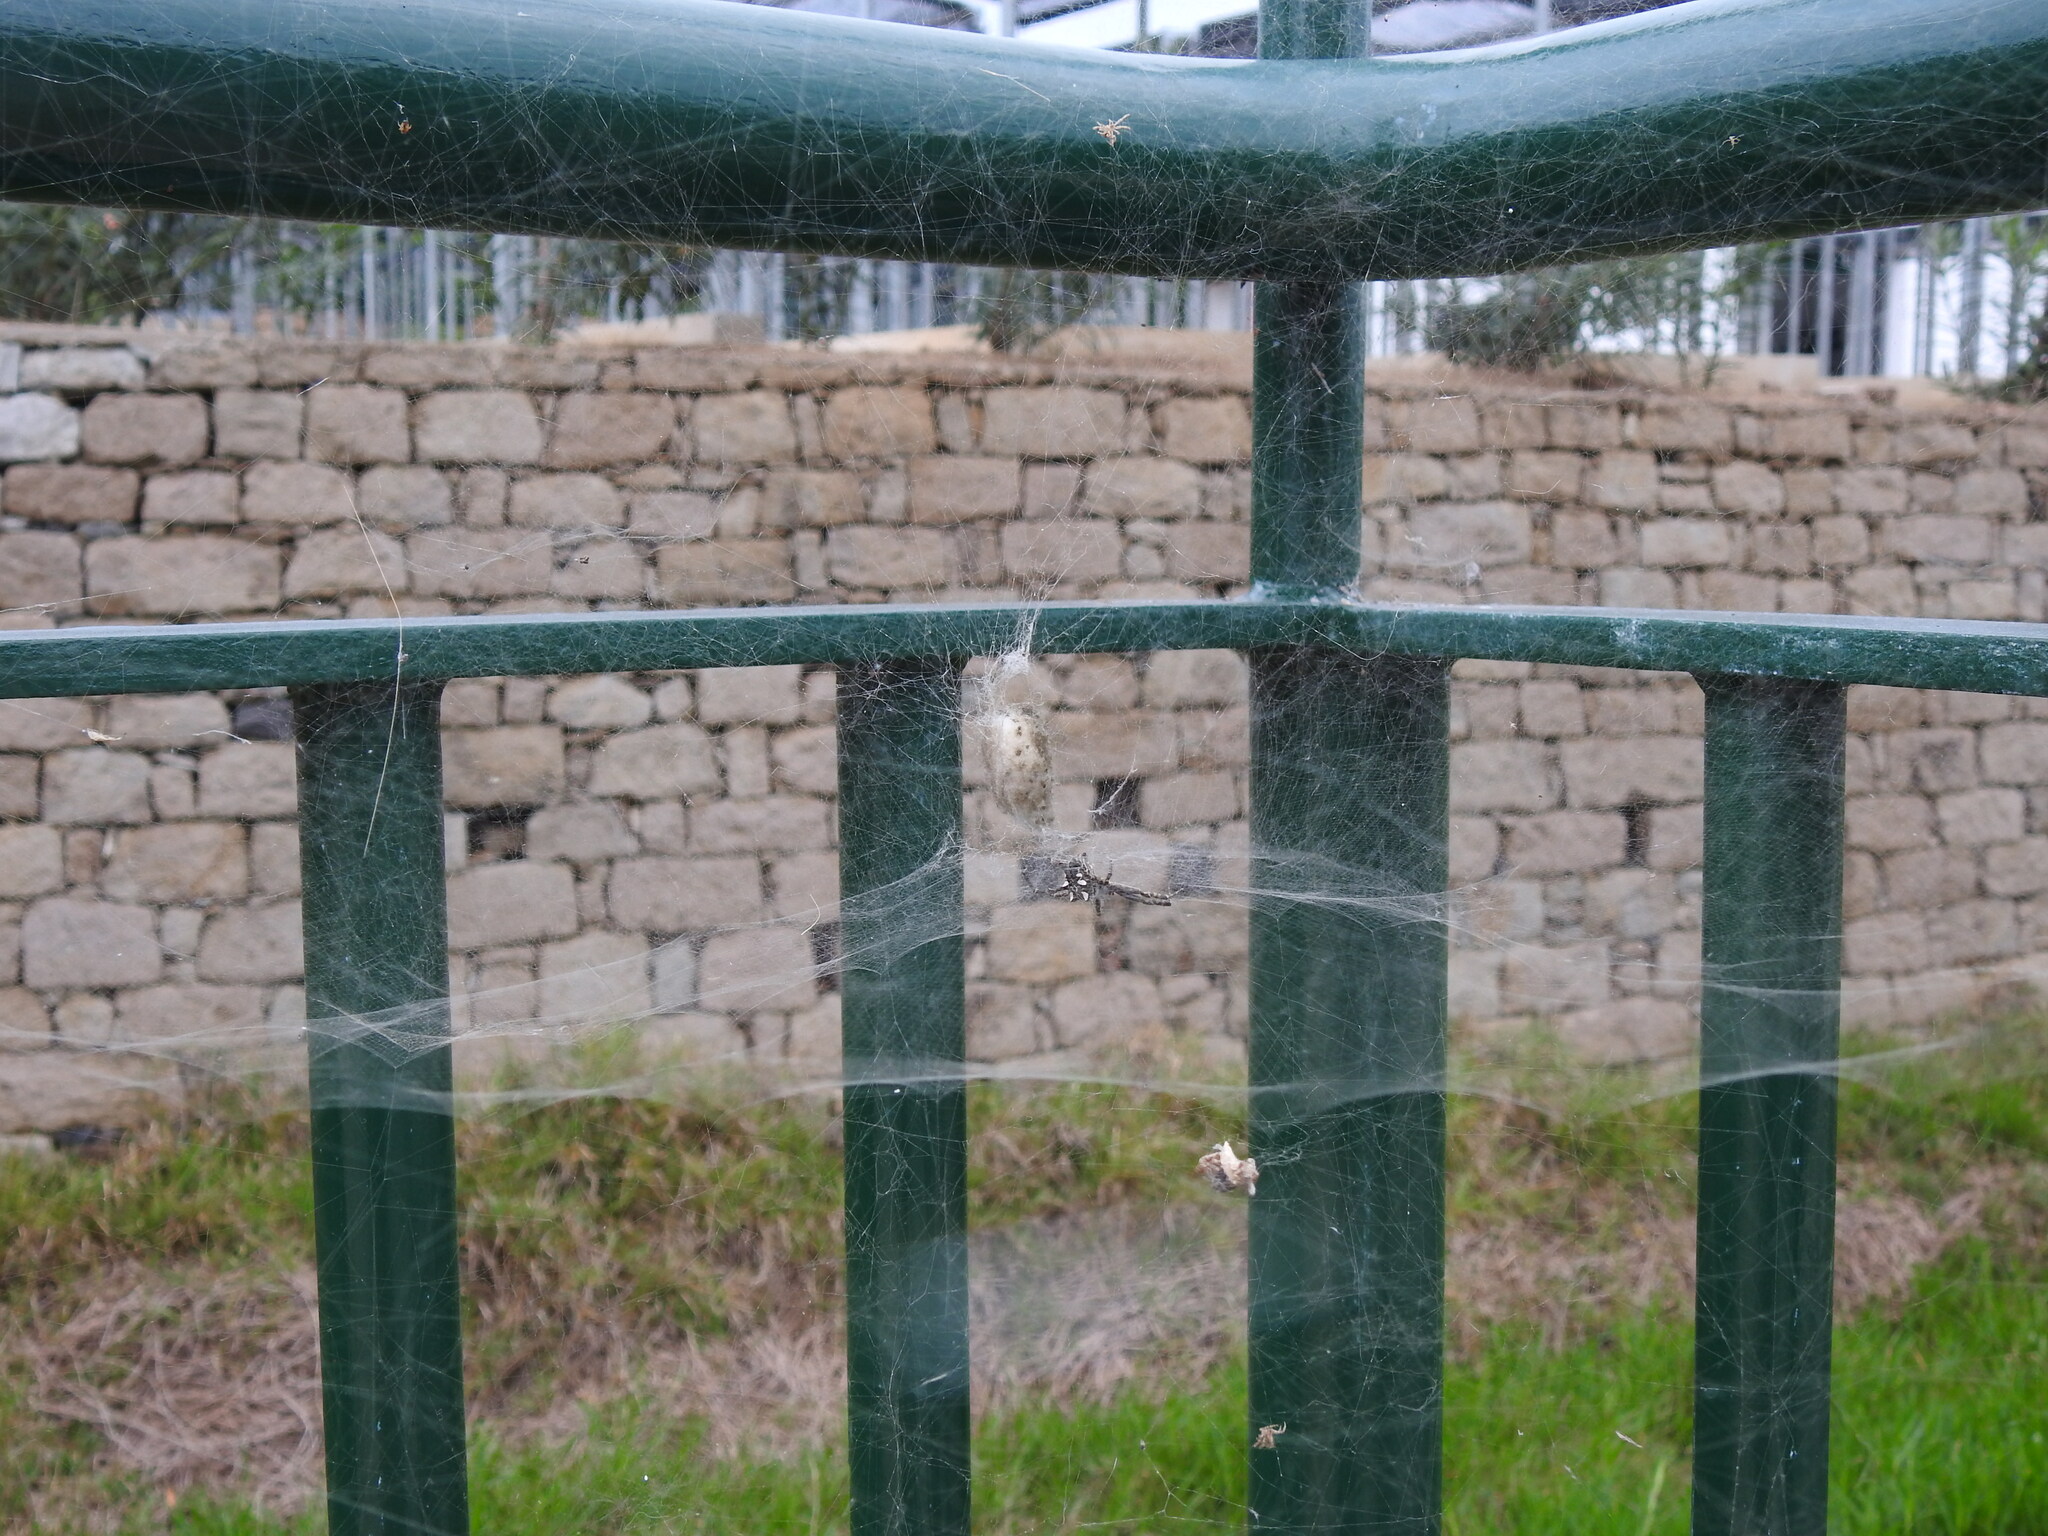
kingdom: Animalia
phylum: Arthropoda
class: Arachnida
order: Araneae
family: Araneidae
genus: Cyrtophora
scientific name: Cyrtophora citricola
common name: Orb weavers
